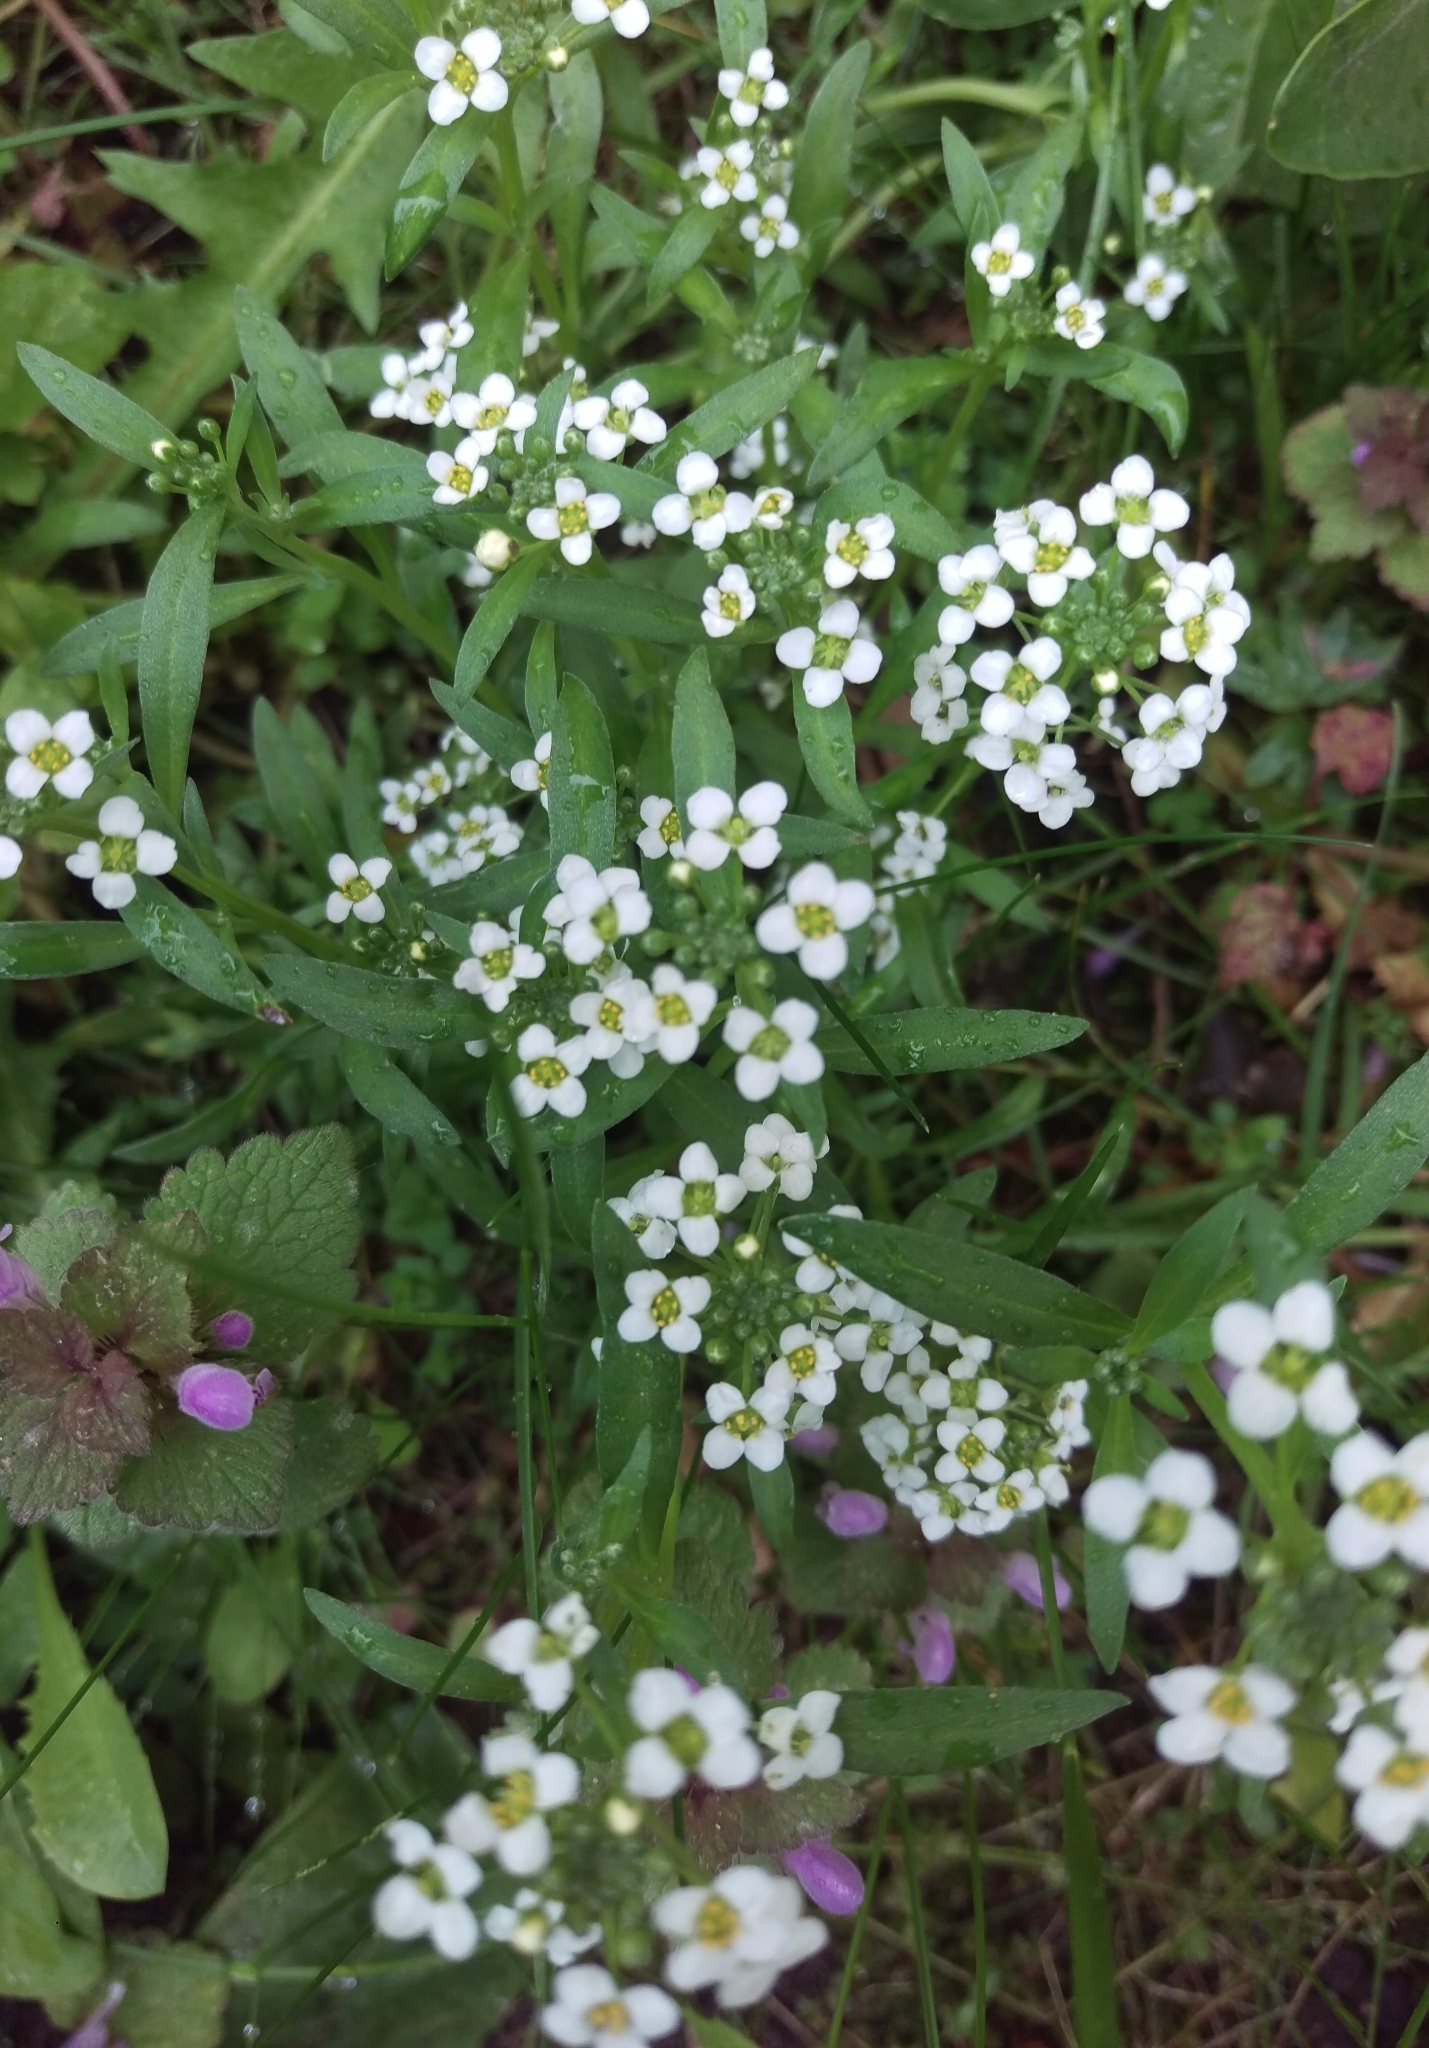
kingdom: Plantae
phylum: Tracheophyta
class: Magnoliopsida
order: Brassicales
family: Brassicaceae
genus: Lobularia
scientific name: Lobularia maritima
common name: Sweet alison
